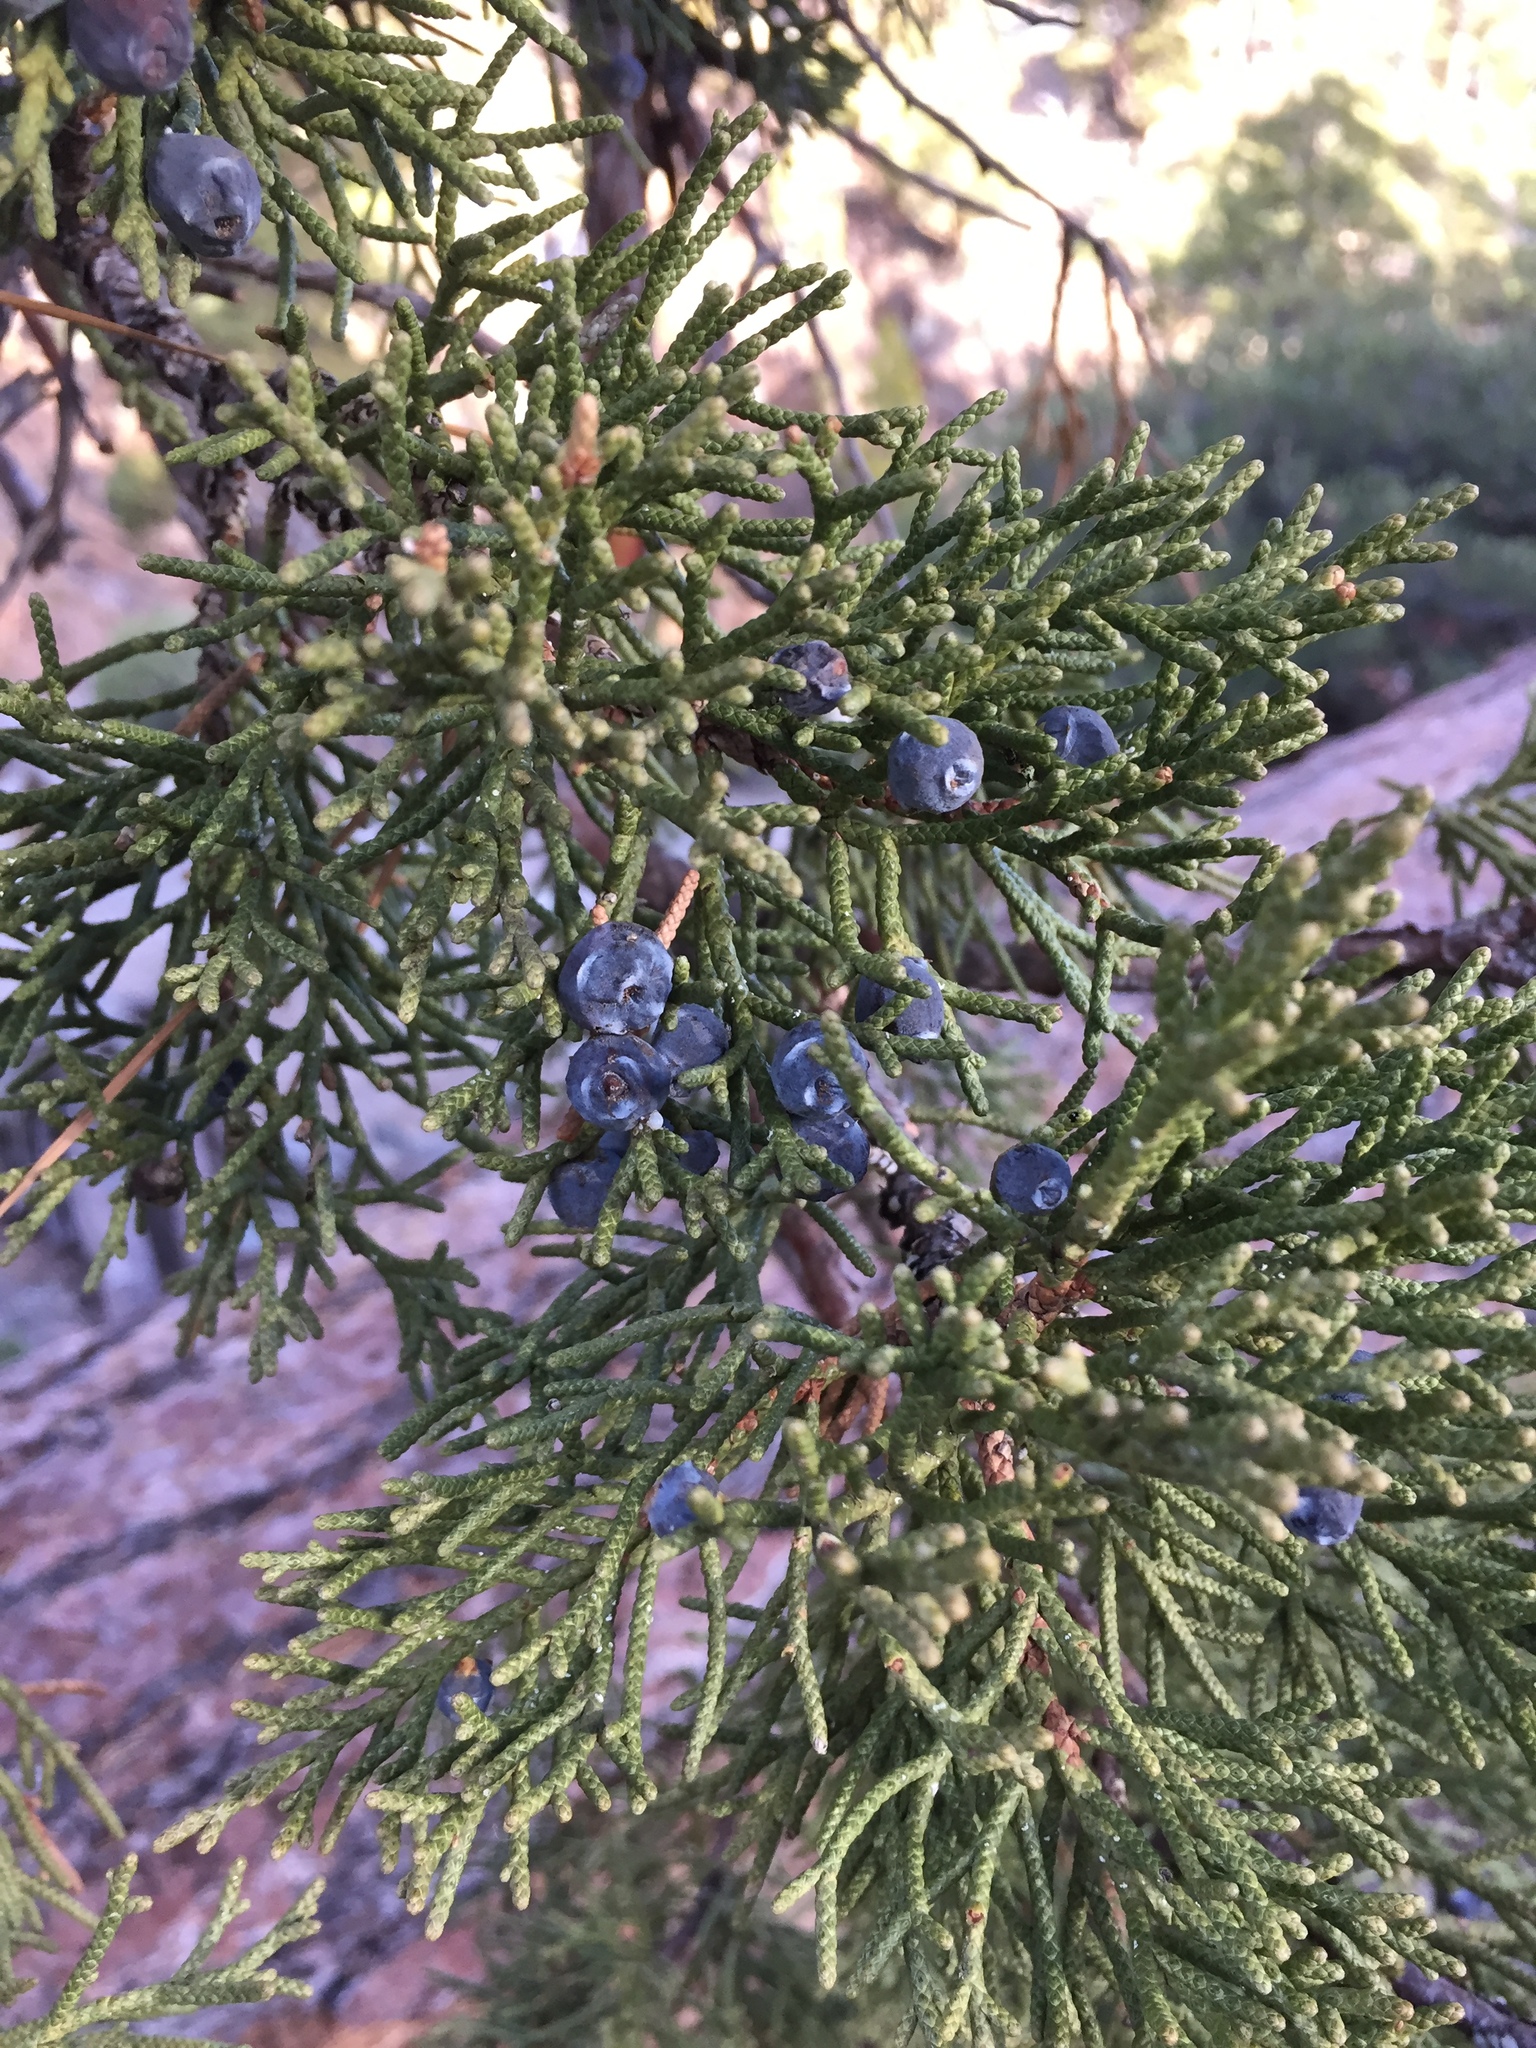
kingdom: Plantae
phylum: Tracheophyta
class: Pinopsida
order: Pinales
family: Cupressaceae
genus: Juniperus
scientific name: Juniperus occidentalis
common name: Western juniper
